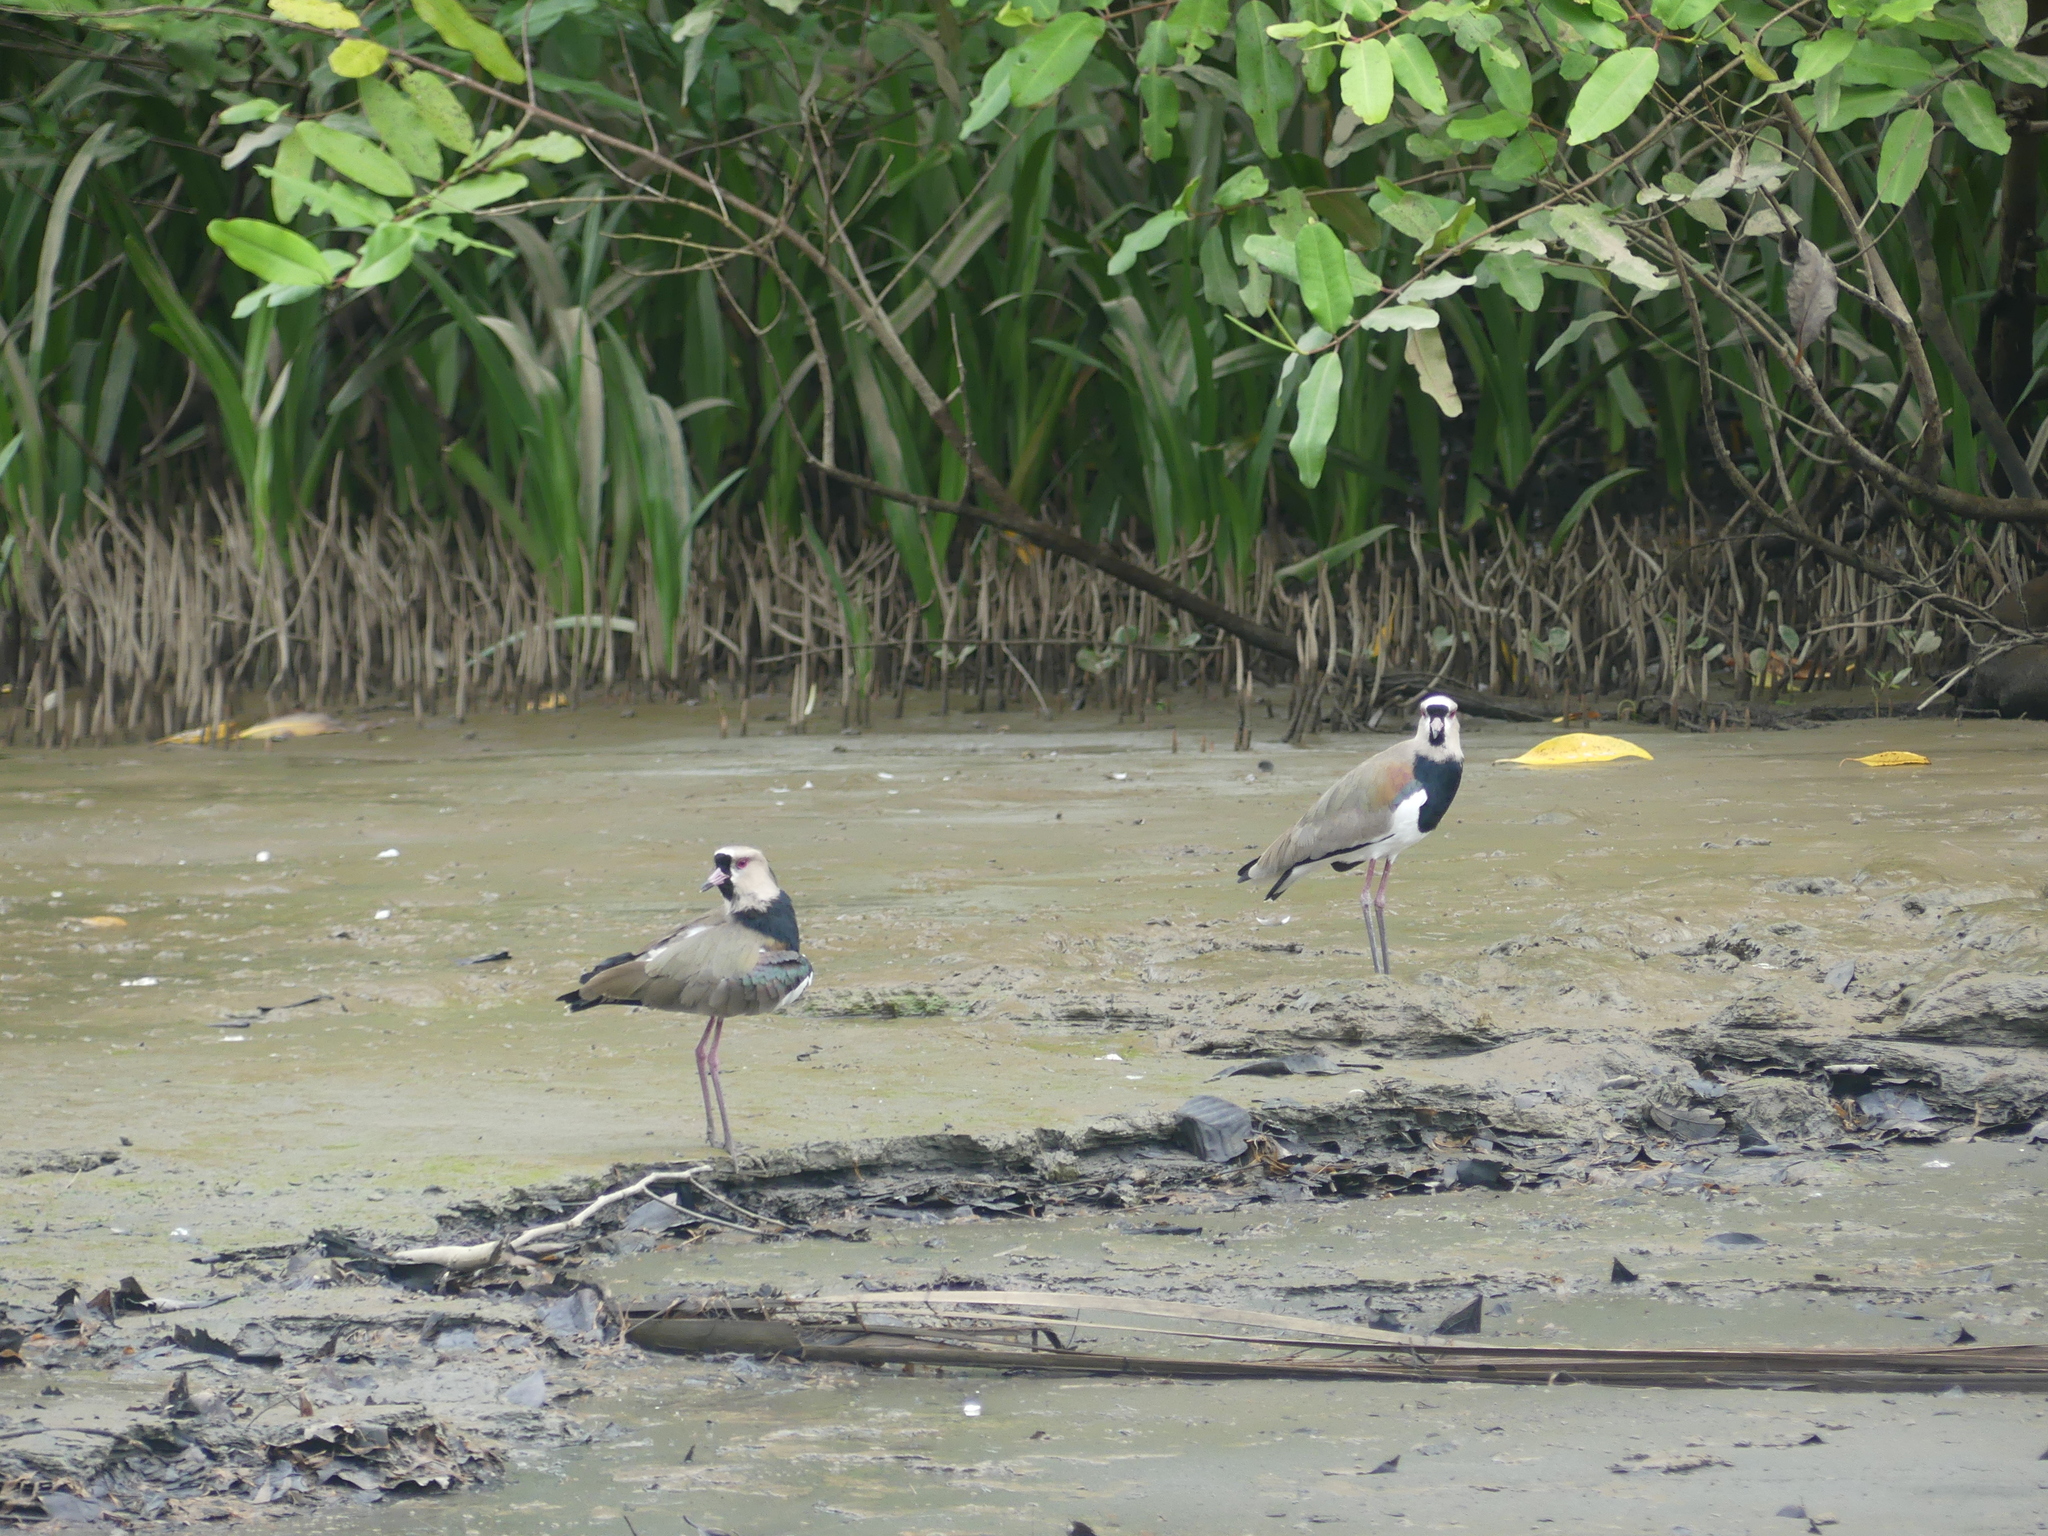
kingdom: Animalia
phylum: Chordata
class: Aves
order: Charadriiformes
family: Charadriidae
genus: Vanellus
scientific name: Vanellus chilensis
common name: Southern lapwing
